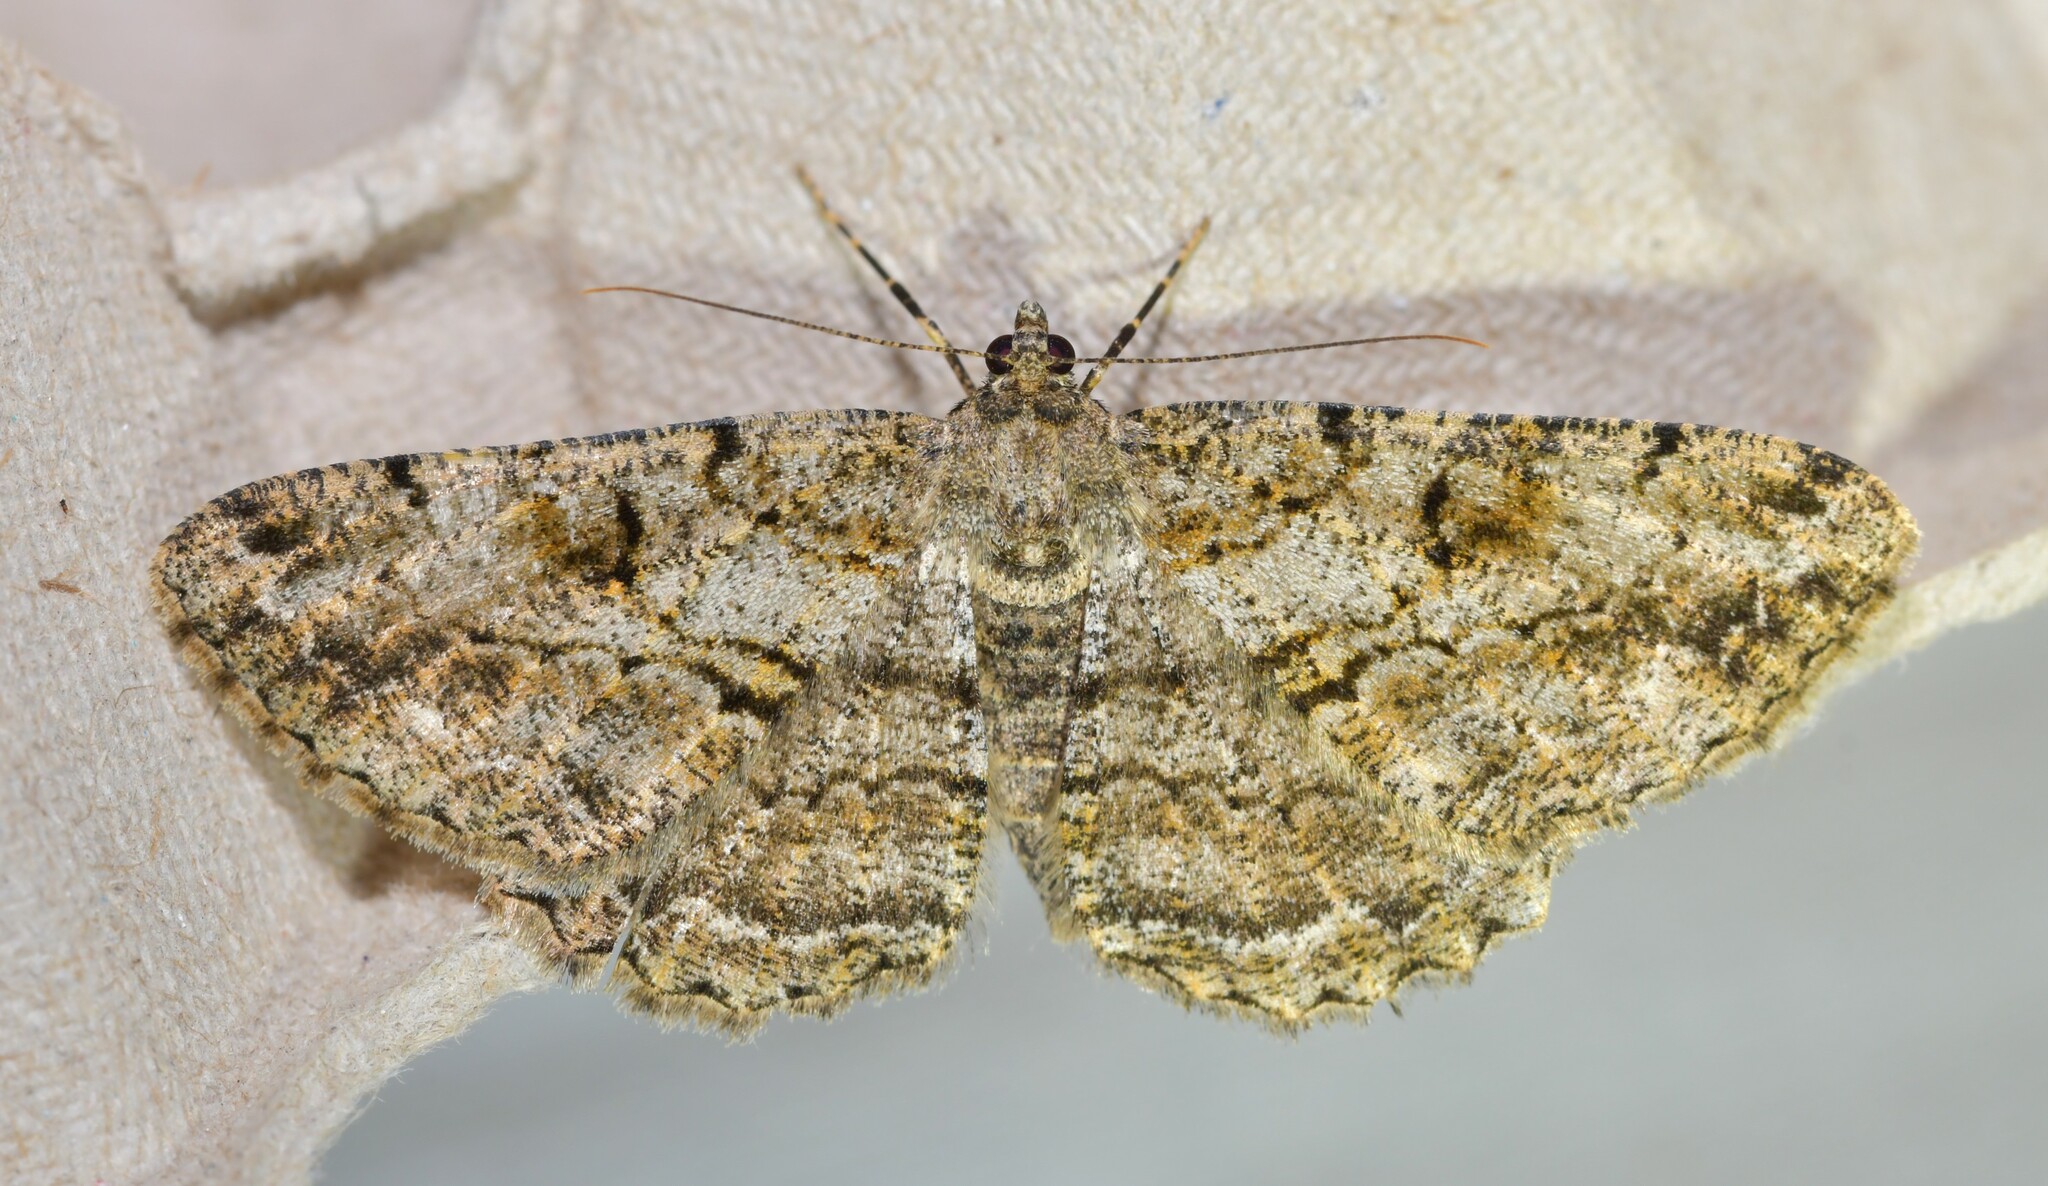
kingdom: Animalia
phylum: Arthropoda
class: Insecta
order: Lepidoptera
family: Geometridae
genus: Peribatodes
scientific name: Peribatodes rhomboidaria
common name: Willow beauty
